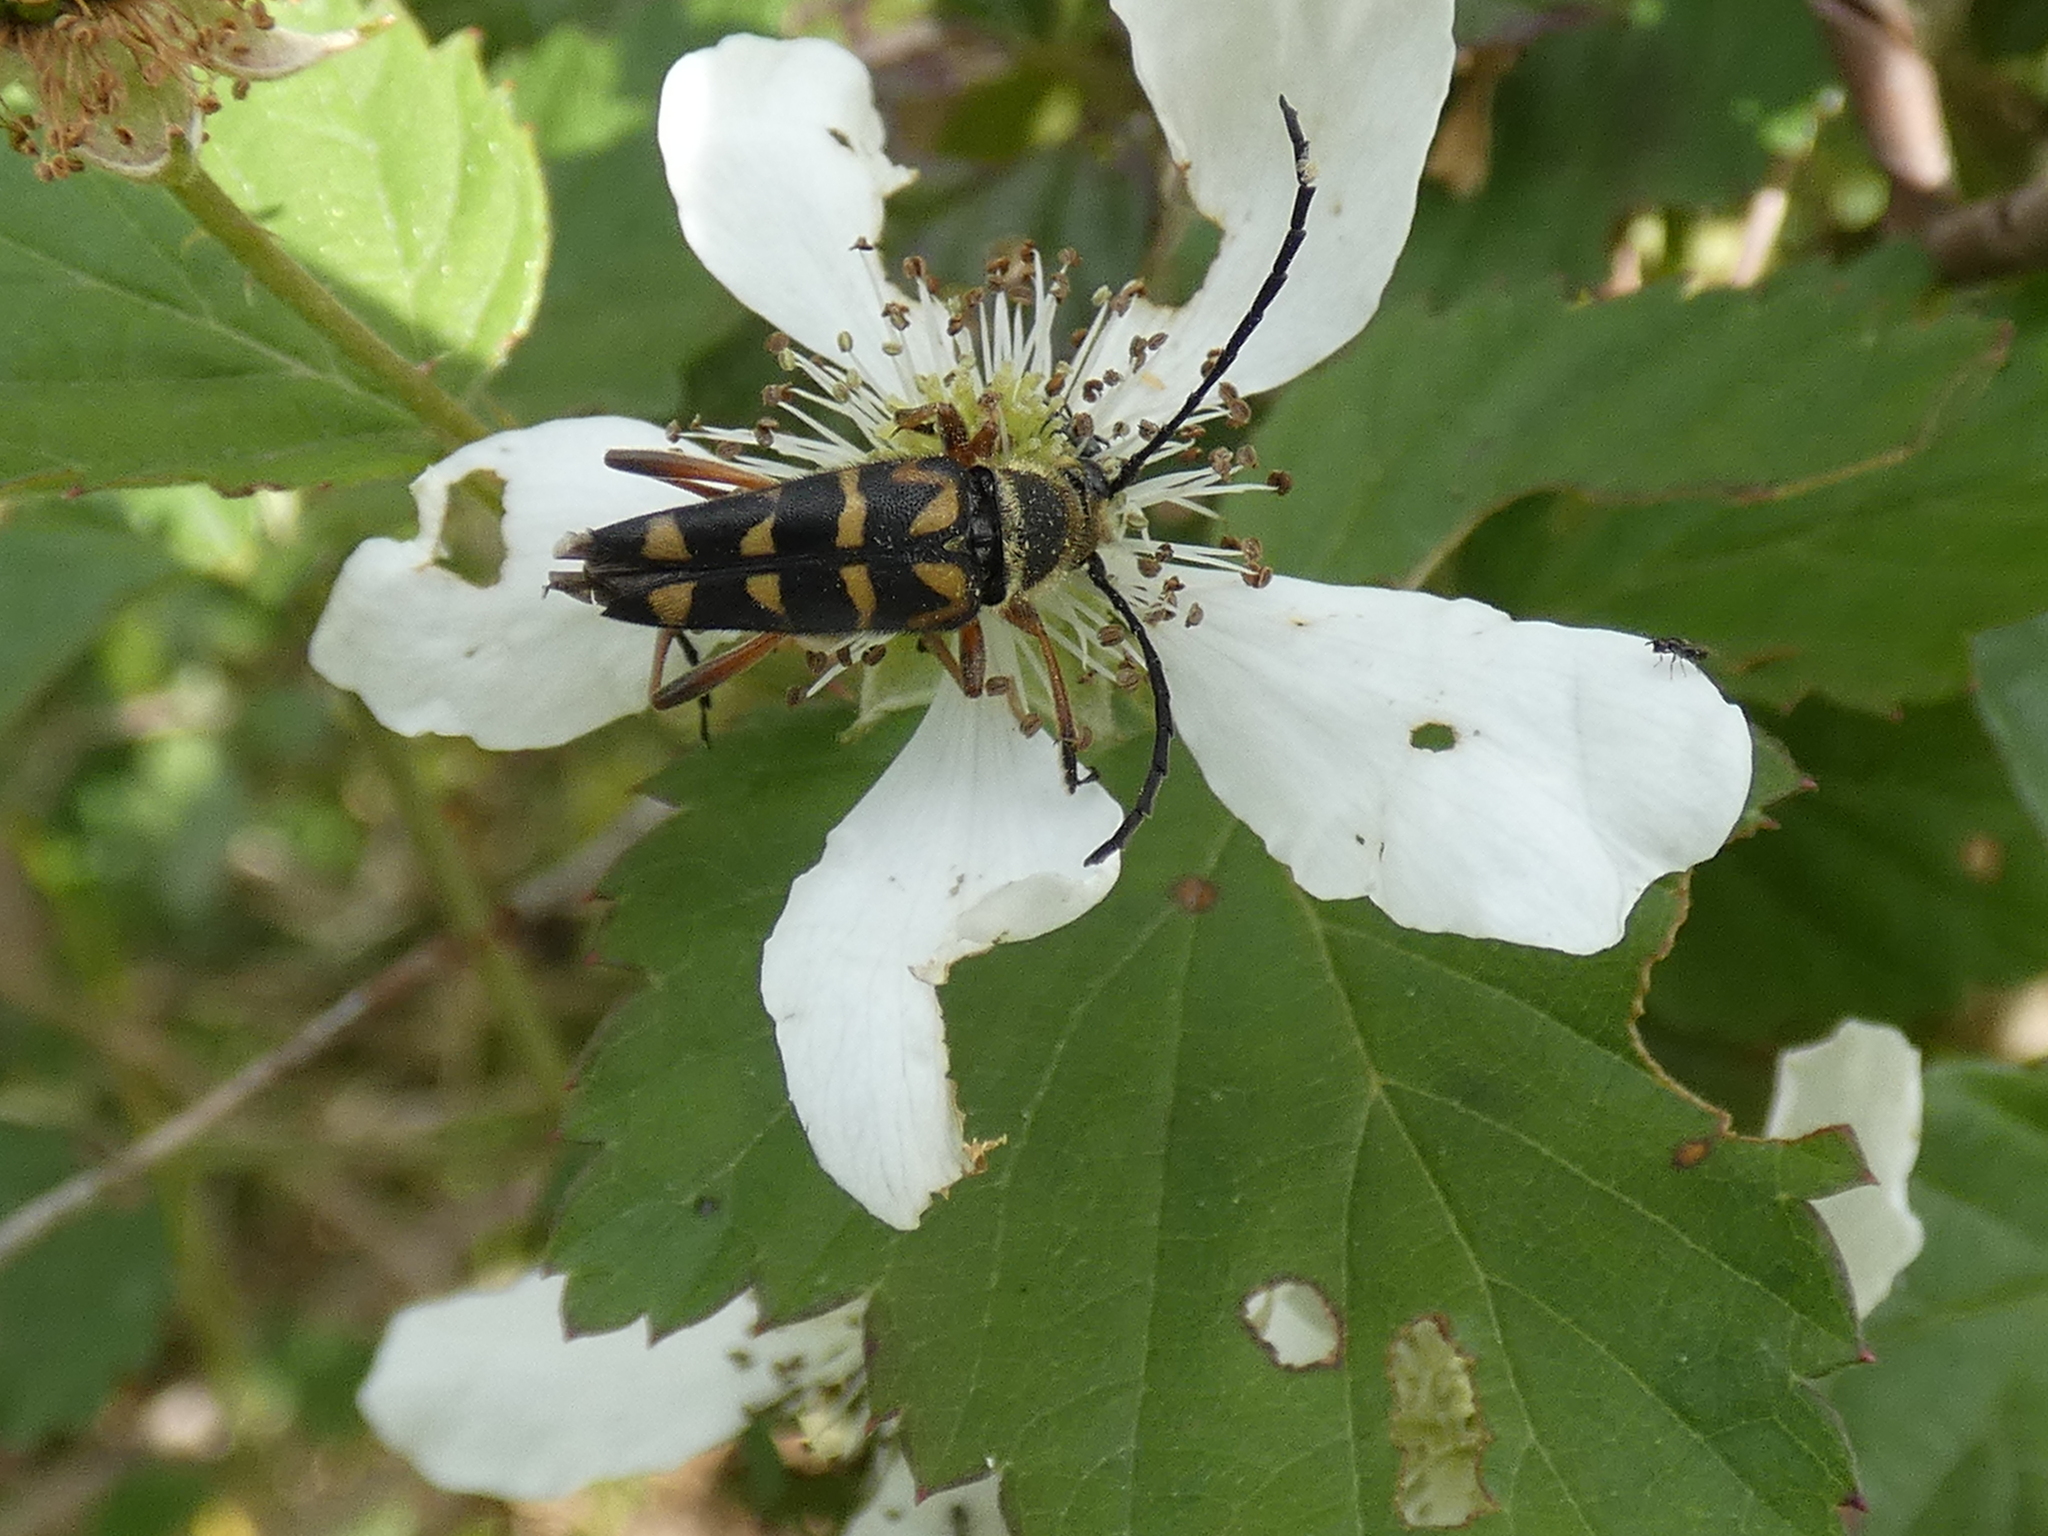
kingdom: Animalia
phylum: Arthropoda
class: Insecta
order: Coleoptera
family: Cerambycidae
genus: Typocerus
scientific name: Typocerus zebra
